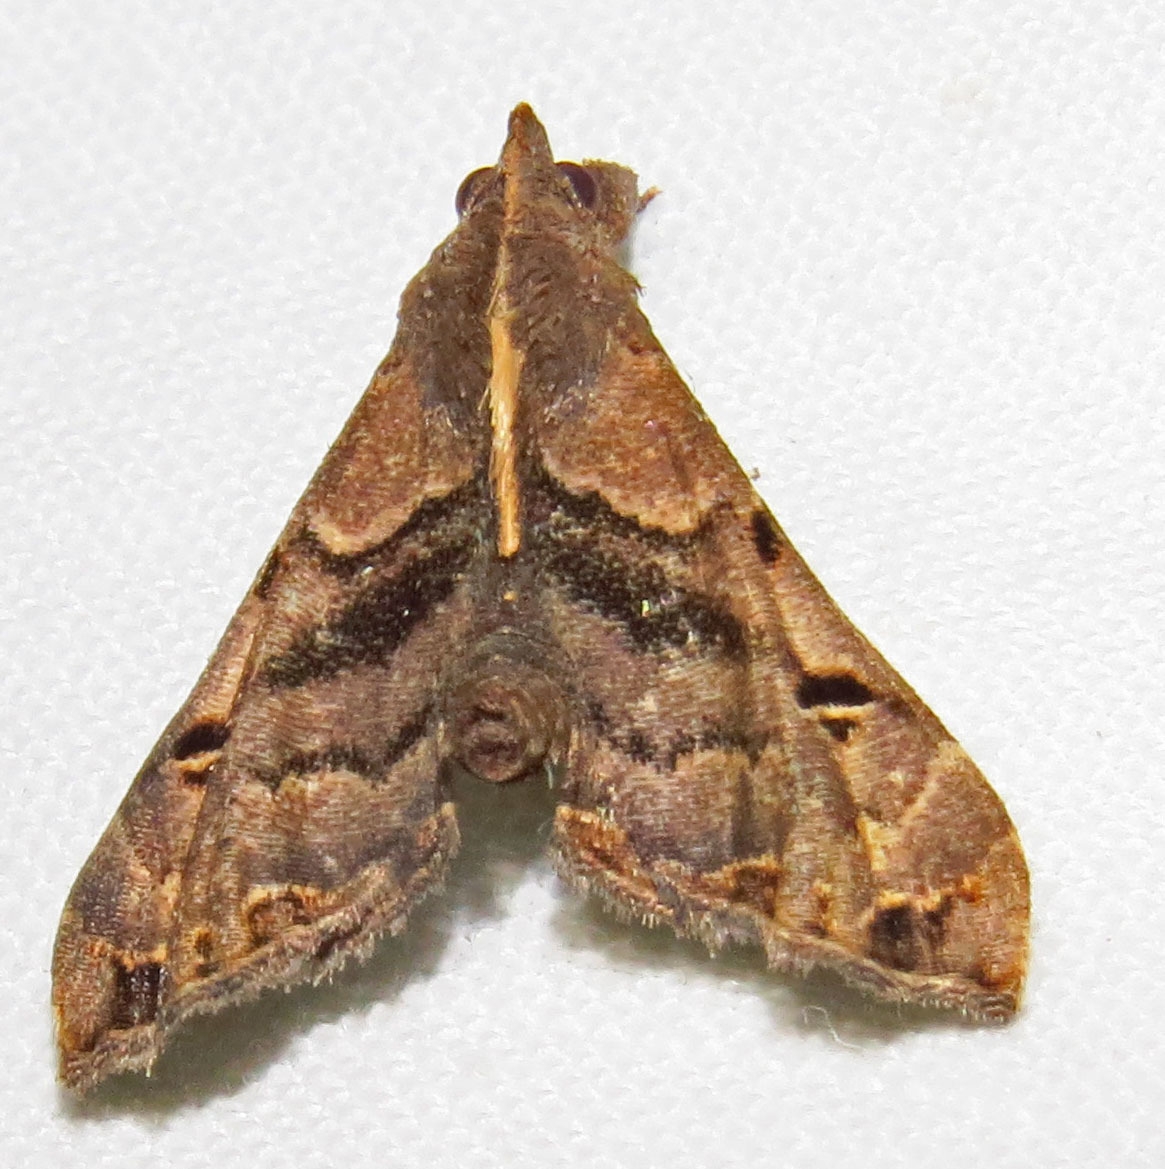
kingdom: Animalia
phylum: Arthropoda
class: Insecta
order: Lepidoptera
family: Erebidae
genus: Palthis
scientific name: Palthis asopialis
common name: Faint-spotted palthis moth
